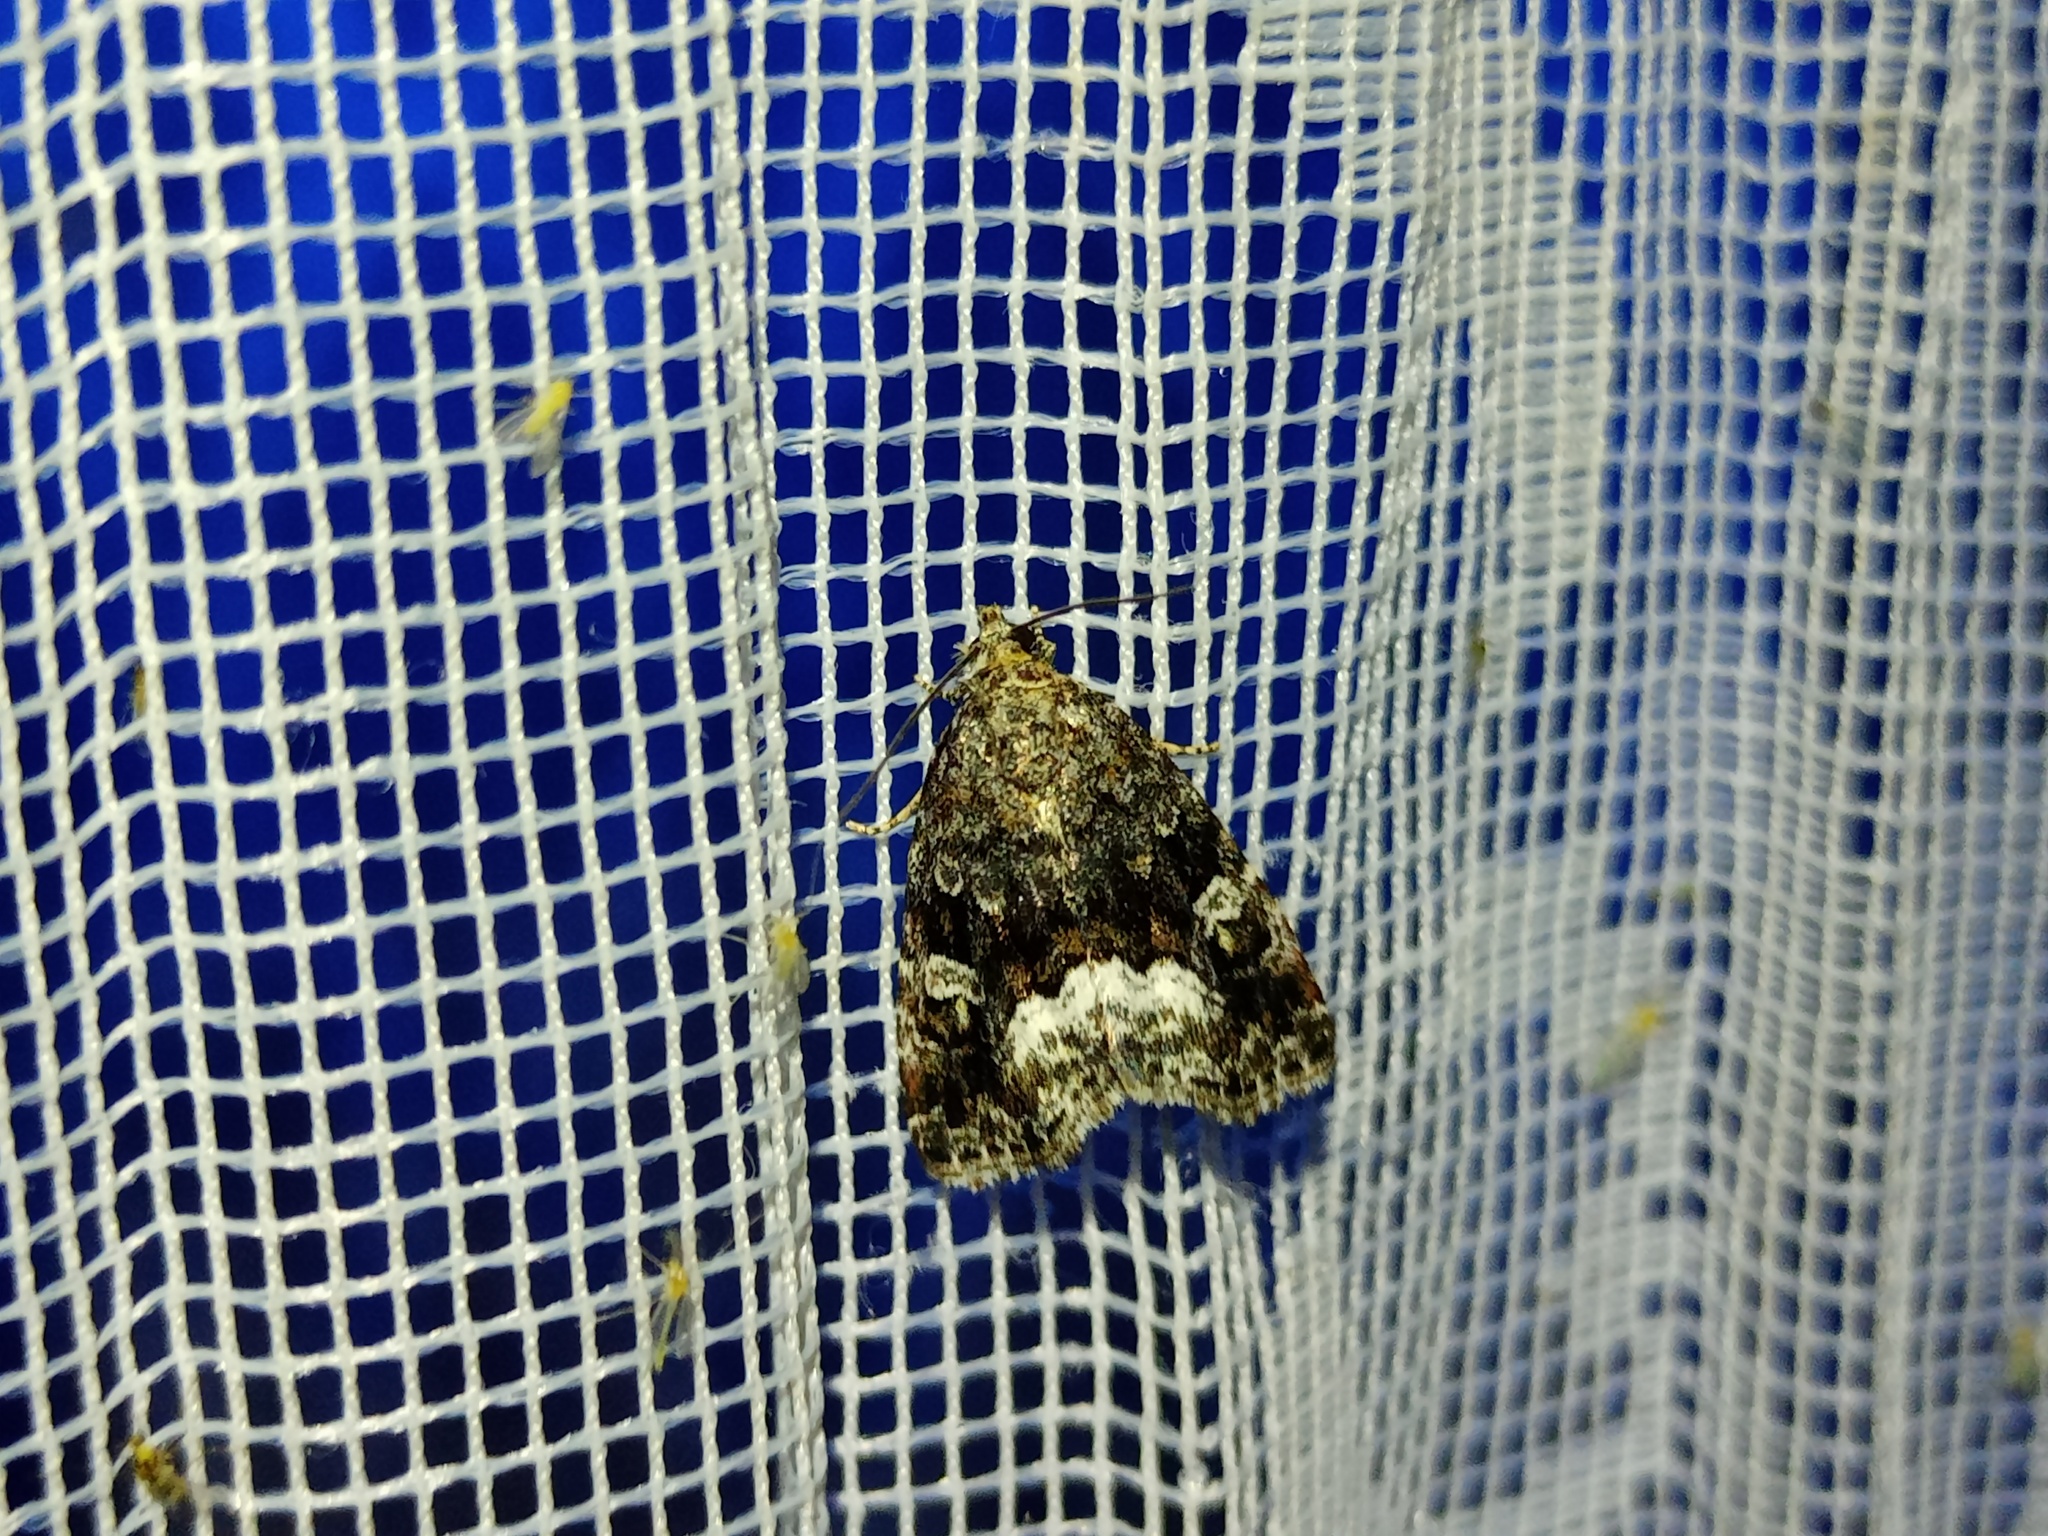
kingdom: Animalia
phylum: Arthropoda
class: Insecta
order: Lepidoptera
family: Noctuidae
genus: Deltote
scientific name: Deltote pygarga
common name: Marbled white spot
